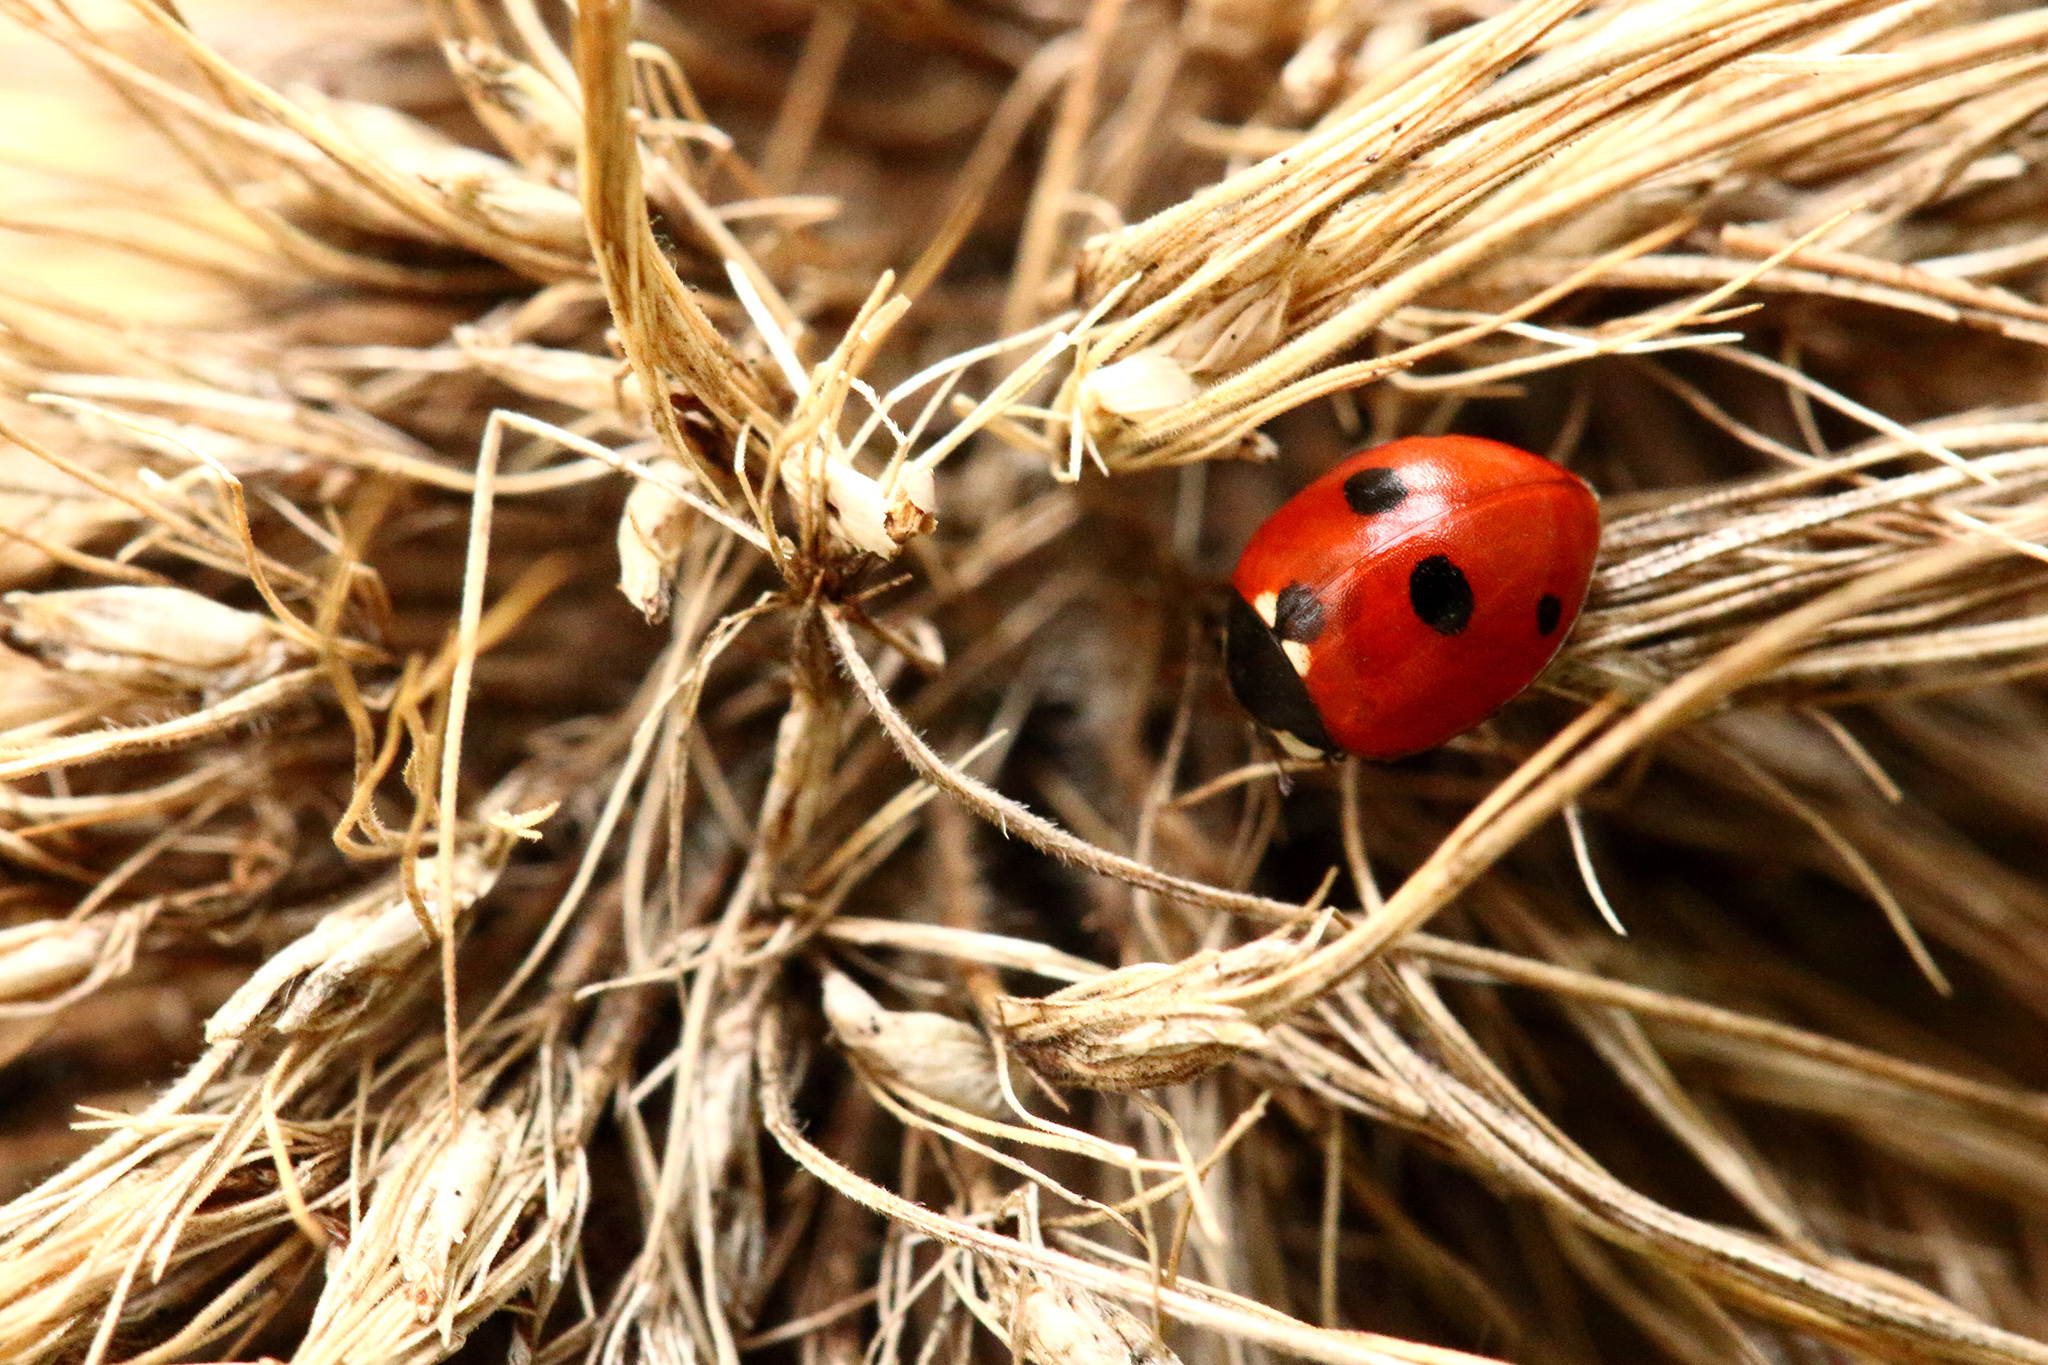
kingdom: Animalia
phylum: Arthropoda
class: Insecta
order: Coleoptera
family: Coccinellidae
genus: Coccinella
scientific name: Coccinella quinquepunctata
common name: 5-spot ladybird
